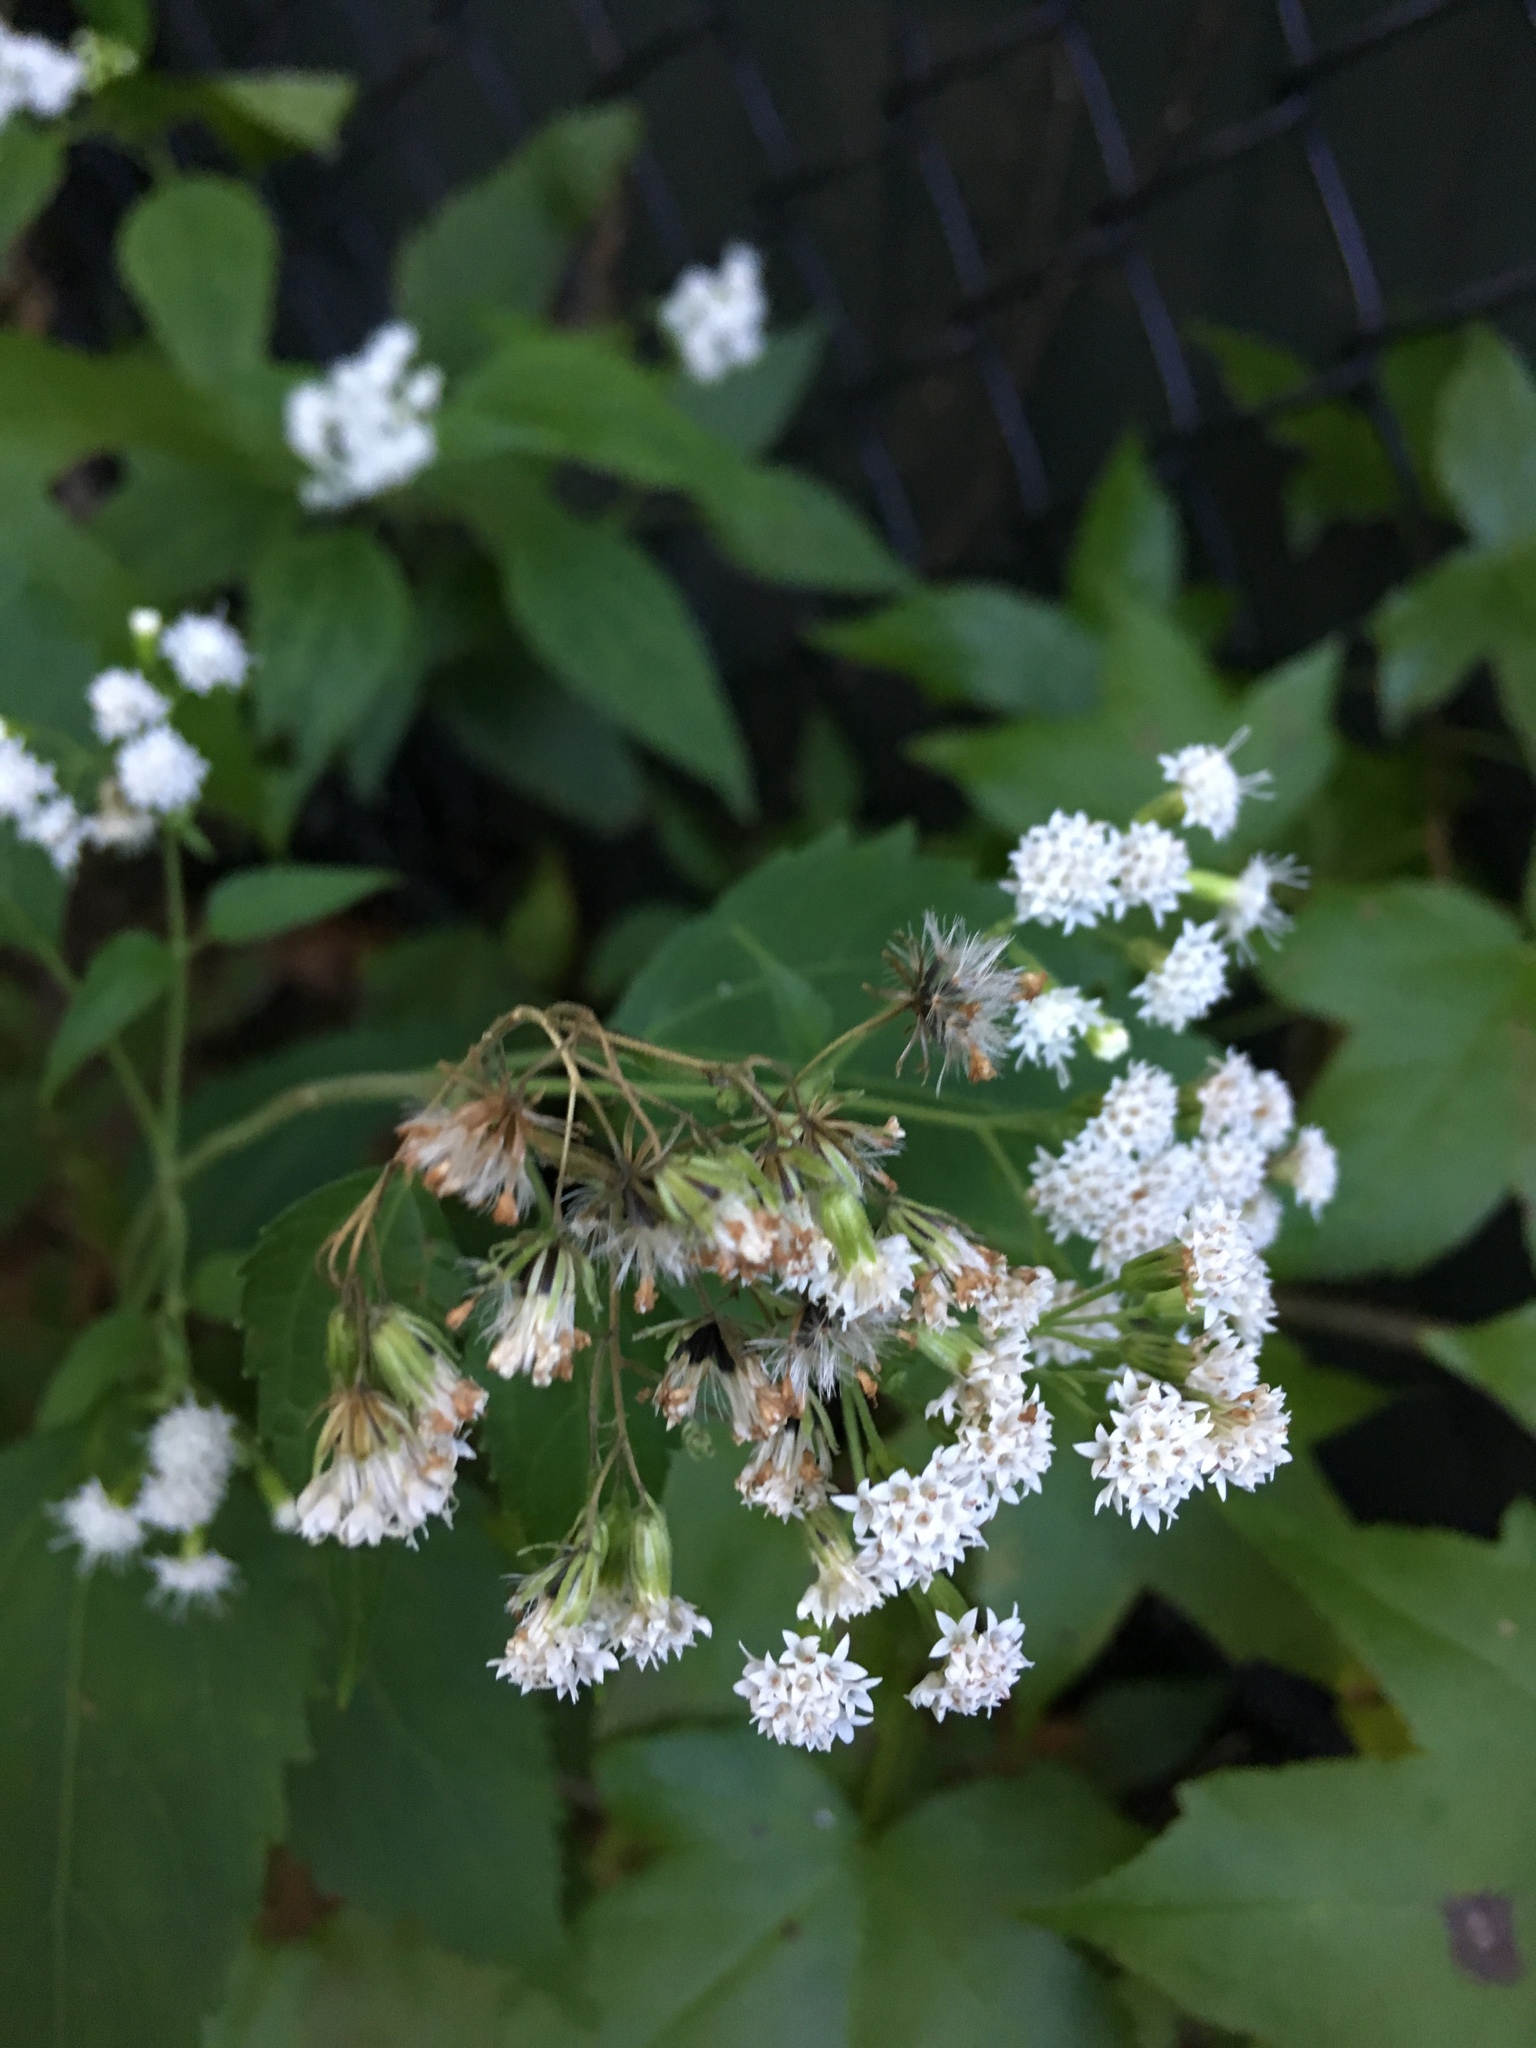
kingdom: Plantae
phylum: Tracheophyta
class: Magnoliopsida
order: Asterales
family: Asteraceae
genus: Ageratina
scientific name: Ageratina altissima
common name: White snakeroot
